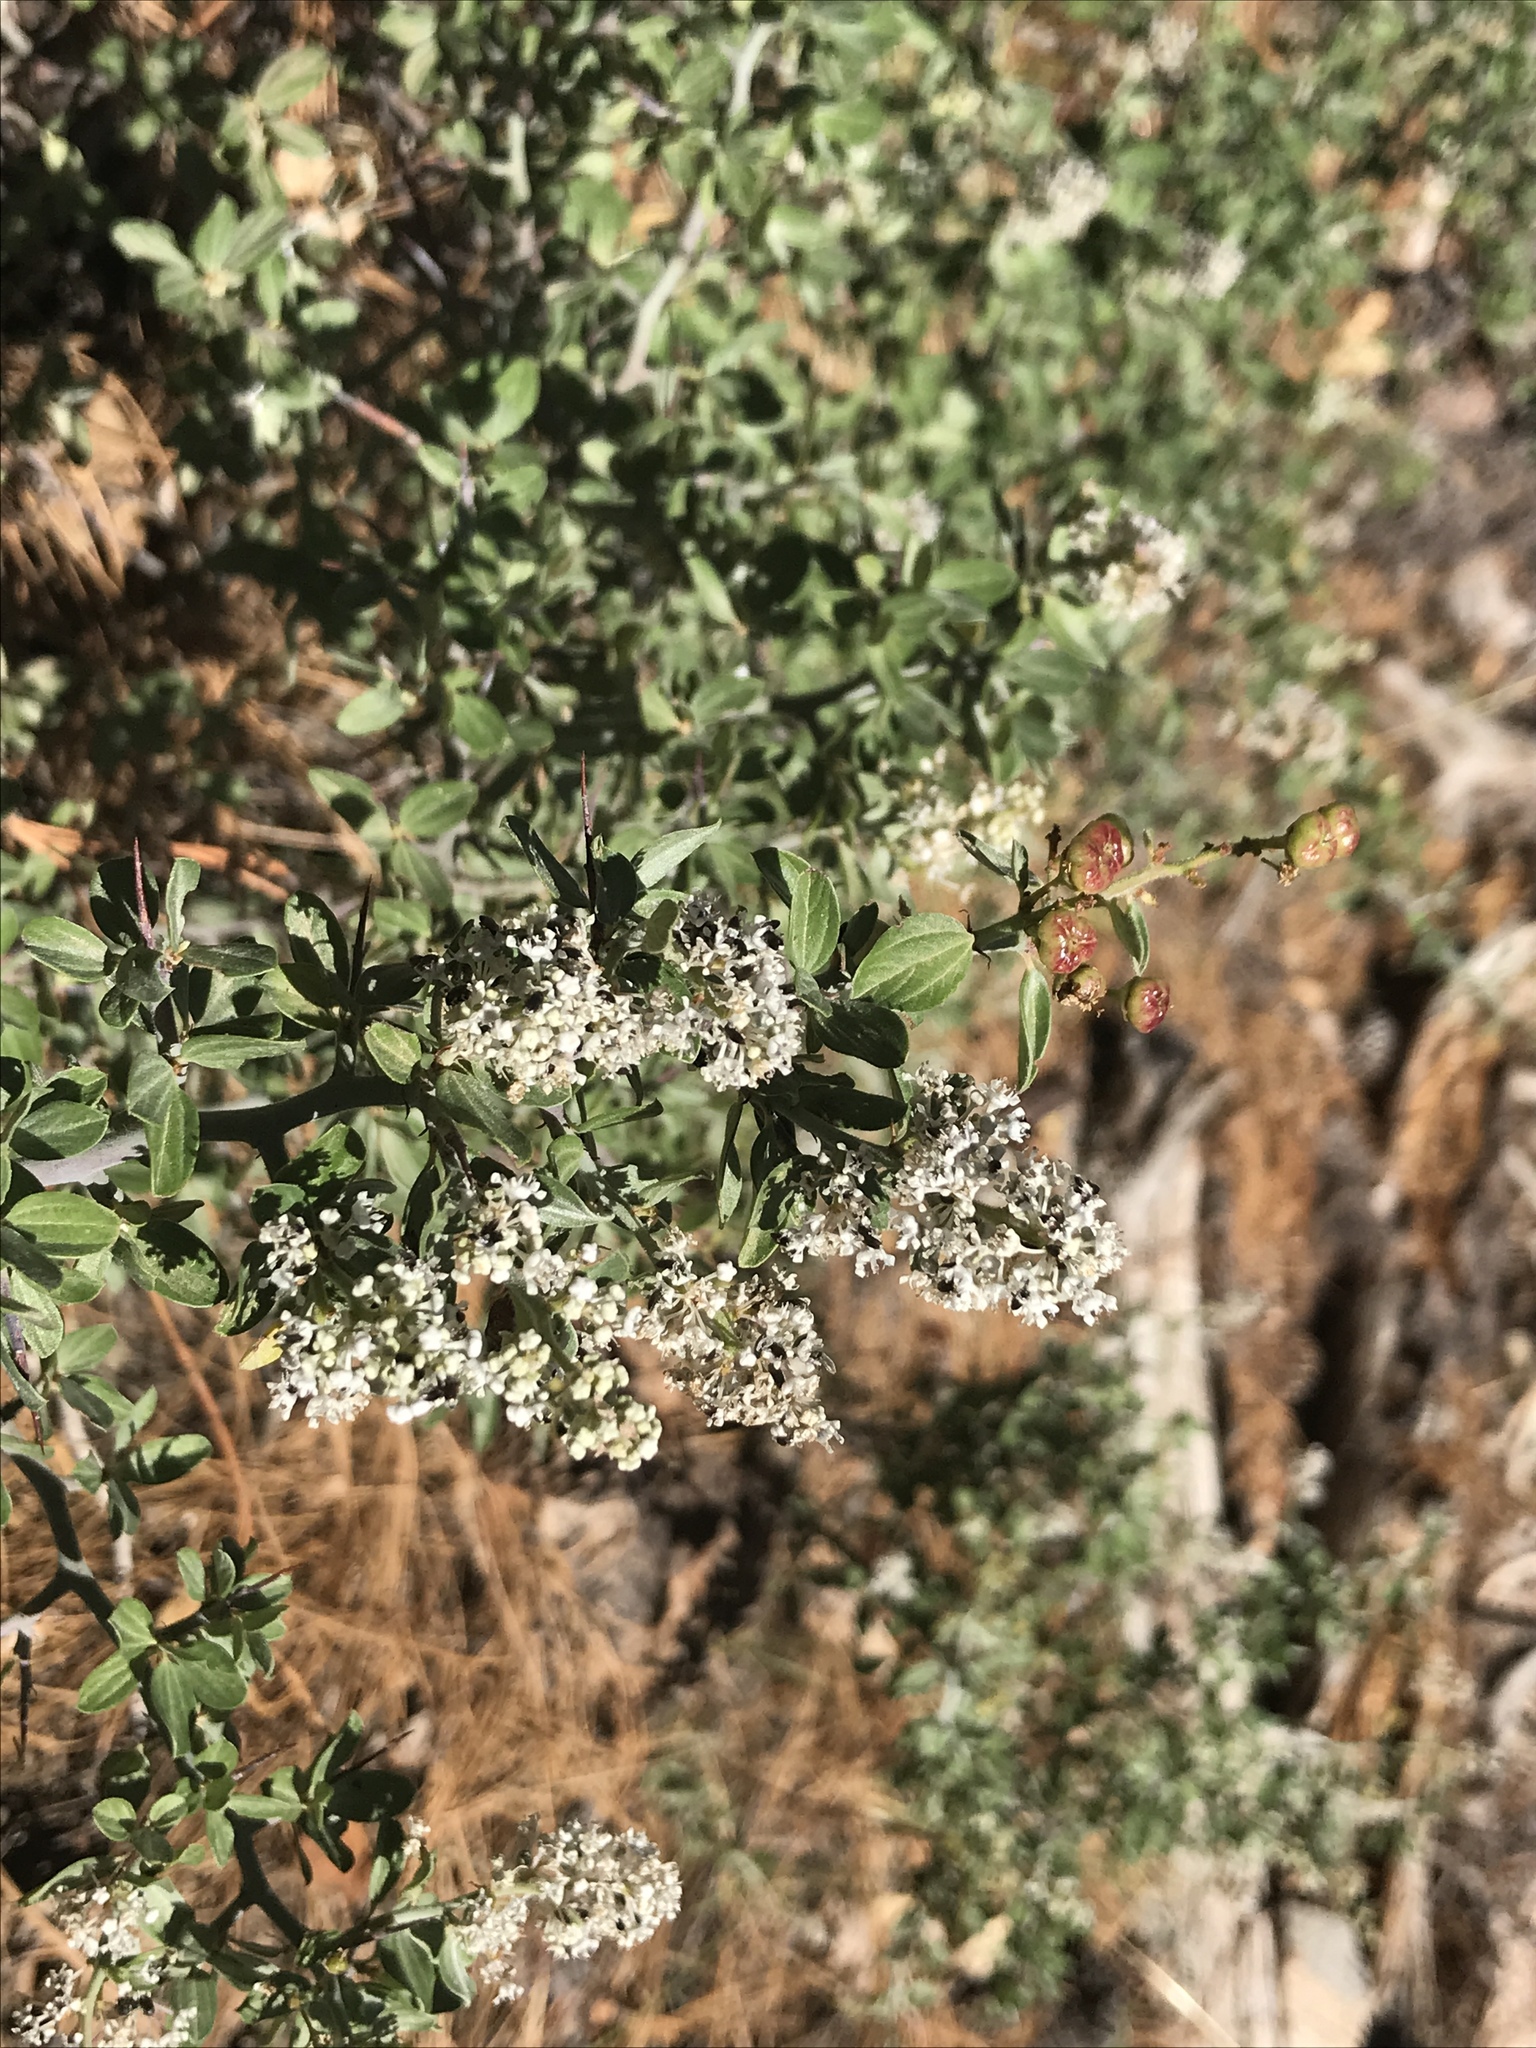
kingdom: Plantae
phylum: Tracheophyta
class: Magnoliopsida
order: Rosales
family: Rhamnaceae
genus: Ceanothus
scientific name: Ceanothus fendleri
